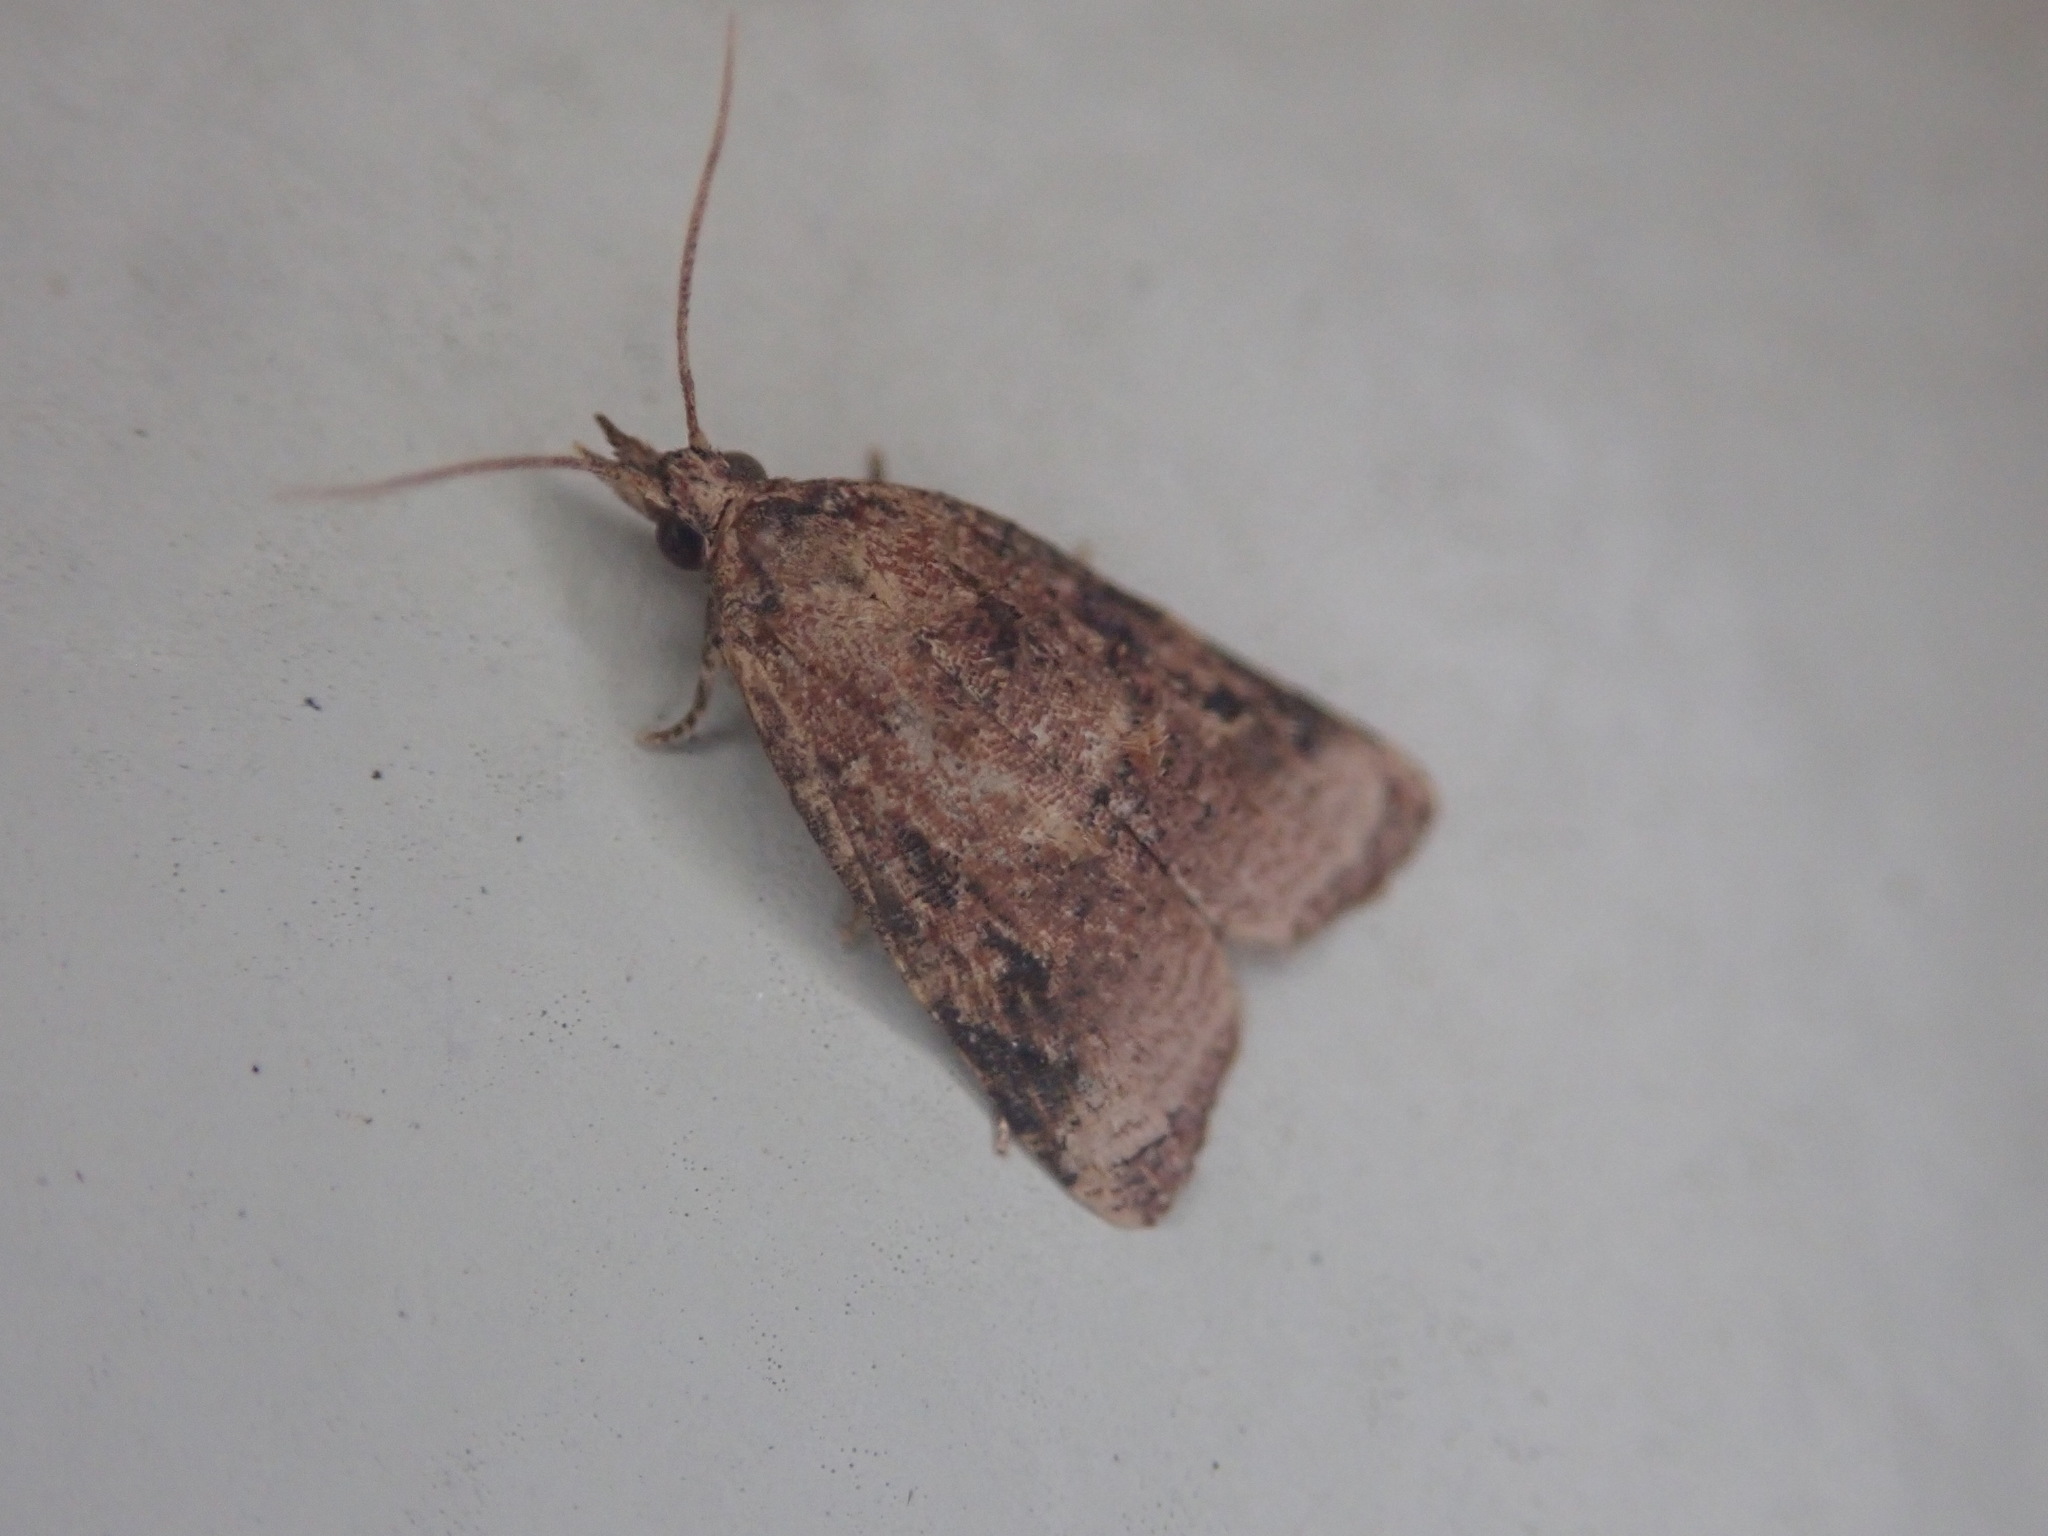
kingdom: Animalia
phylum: Arthropoda
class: Insecta
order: Lepidoptera
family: Tortricidae
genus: Platynota
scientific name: Platynota idaeusalis
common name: Tufted apple bud moth
